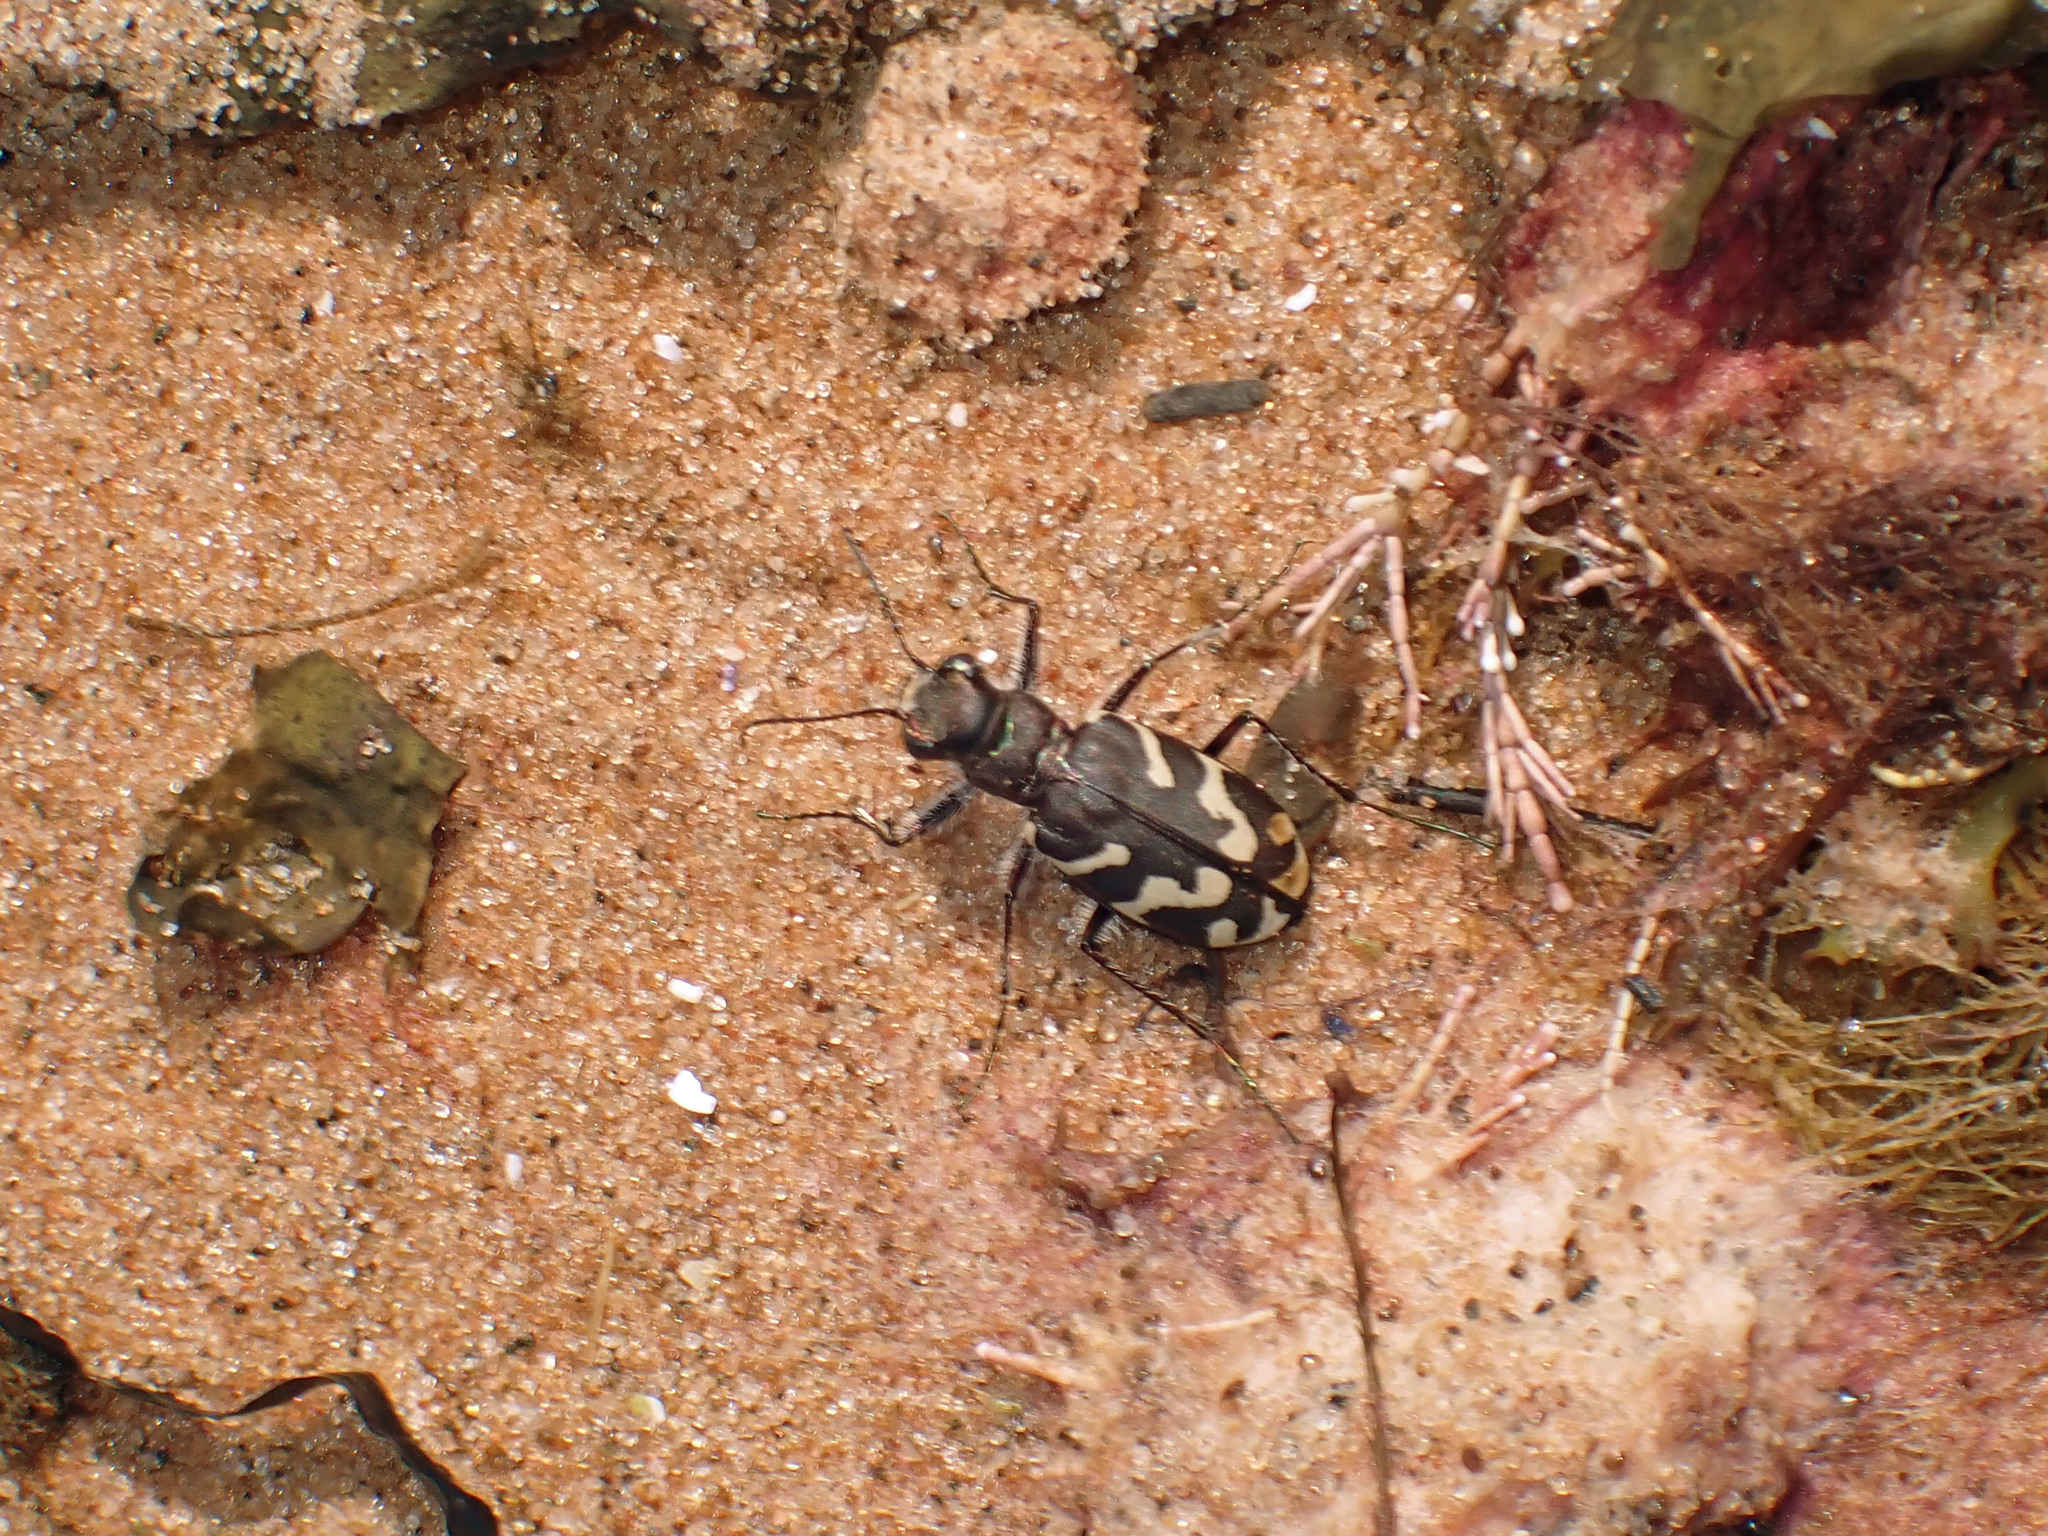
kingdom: Animalia
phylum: Arthropoda
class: Insecta
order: Coleoptera
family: Carabidae
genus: Cicindela
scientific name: Cicindela tranquebarica
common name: Oblique-lined tiger beetle
